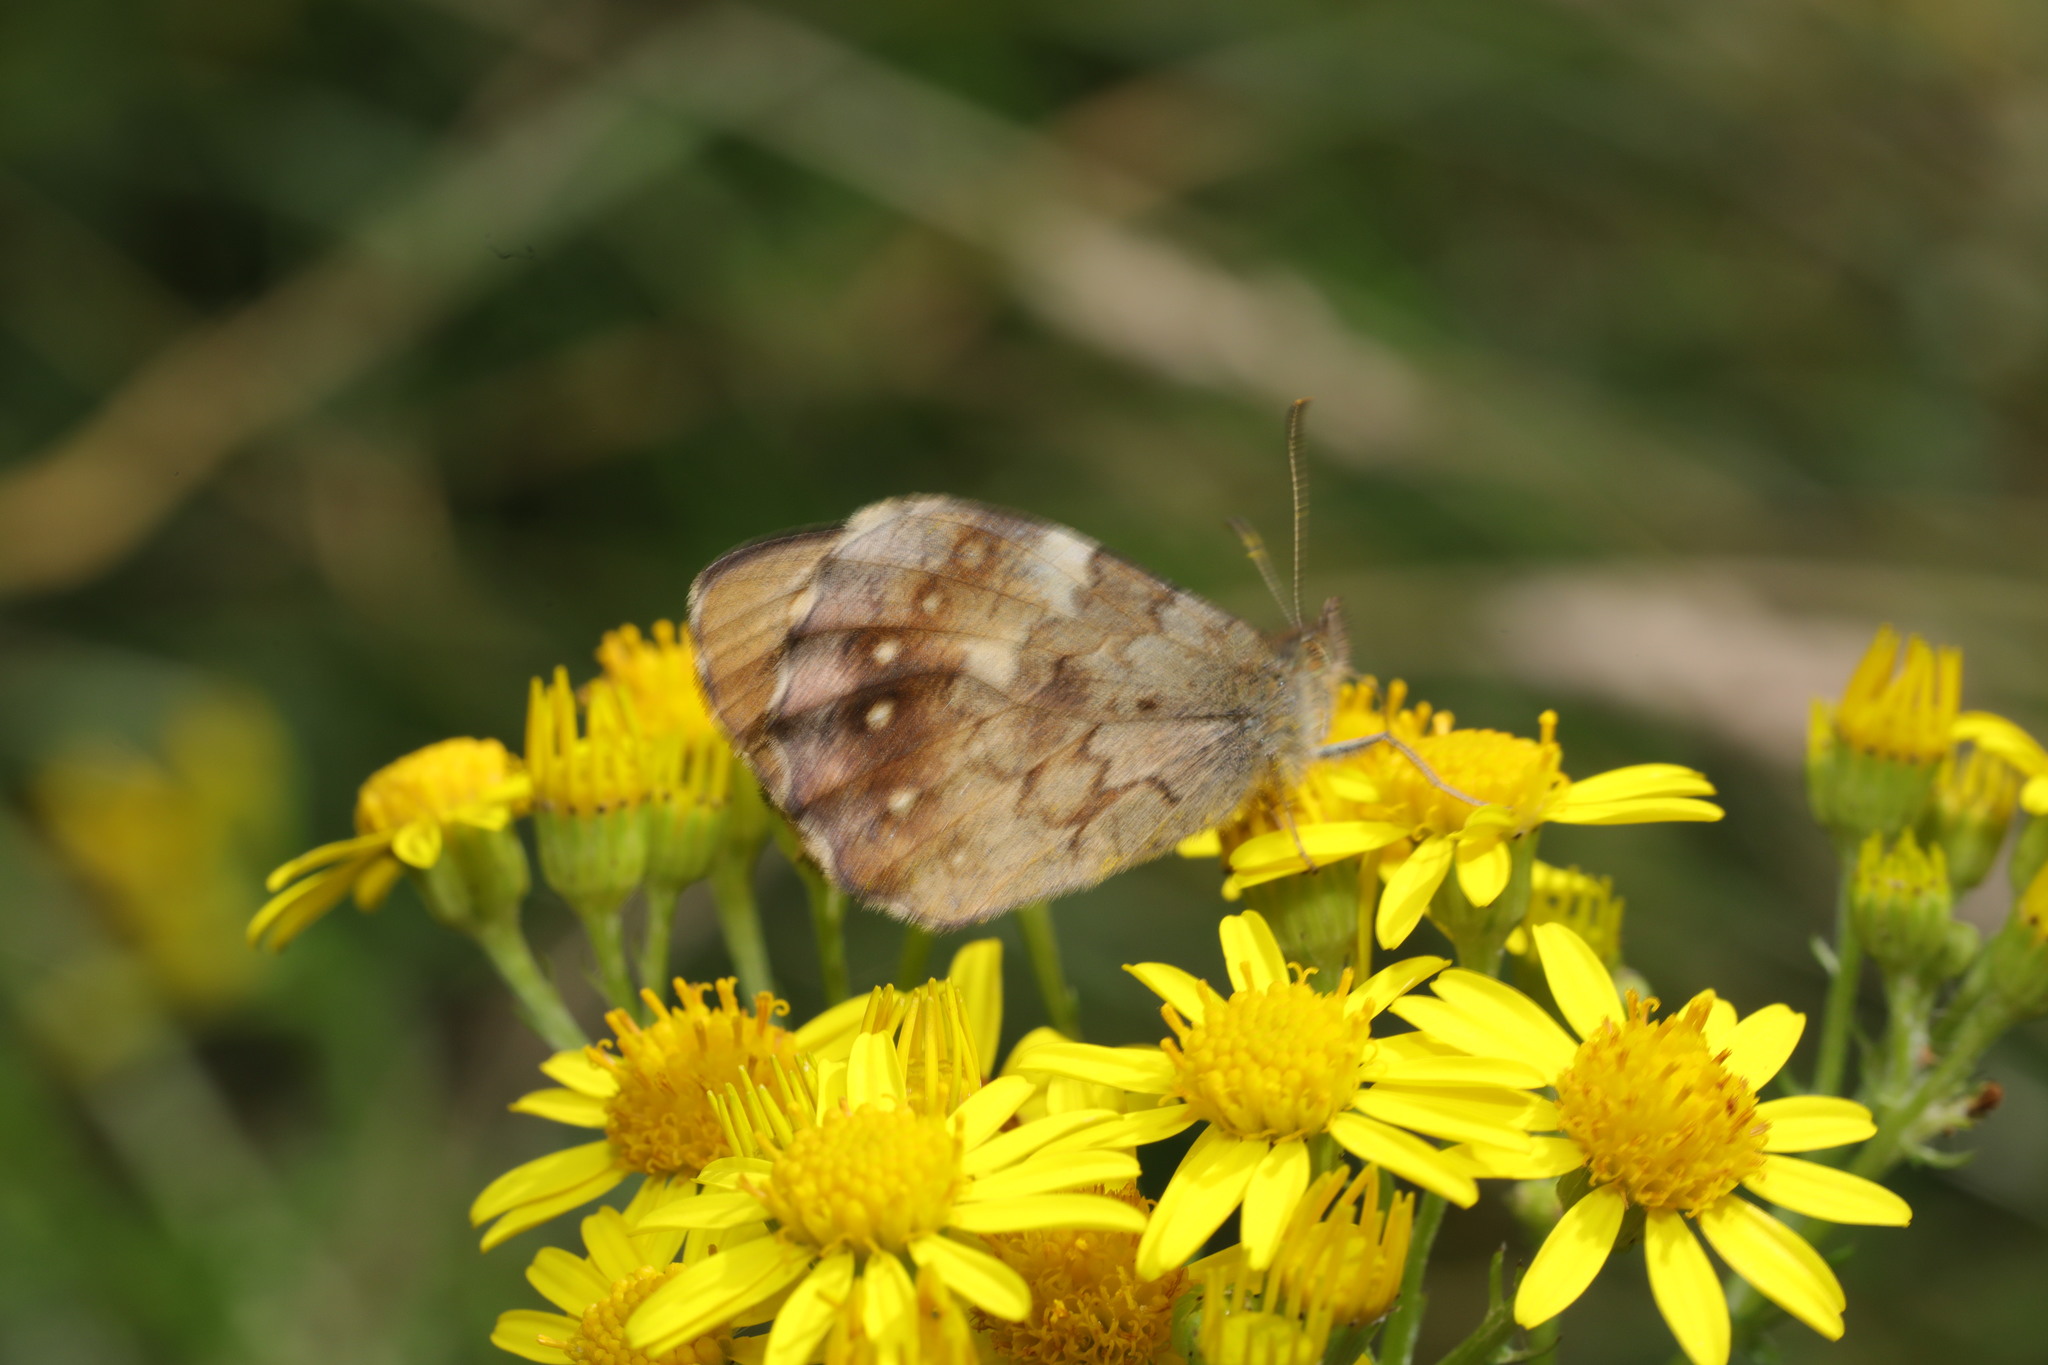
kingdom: Animalia
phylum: Arthropoda
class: Insecta
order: Lepidoptera
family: Nymphalidae
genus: Pararge
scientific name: Pararge aegeria
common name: Speckled wood
